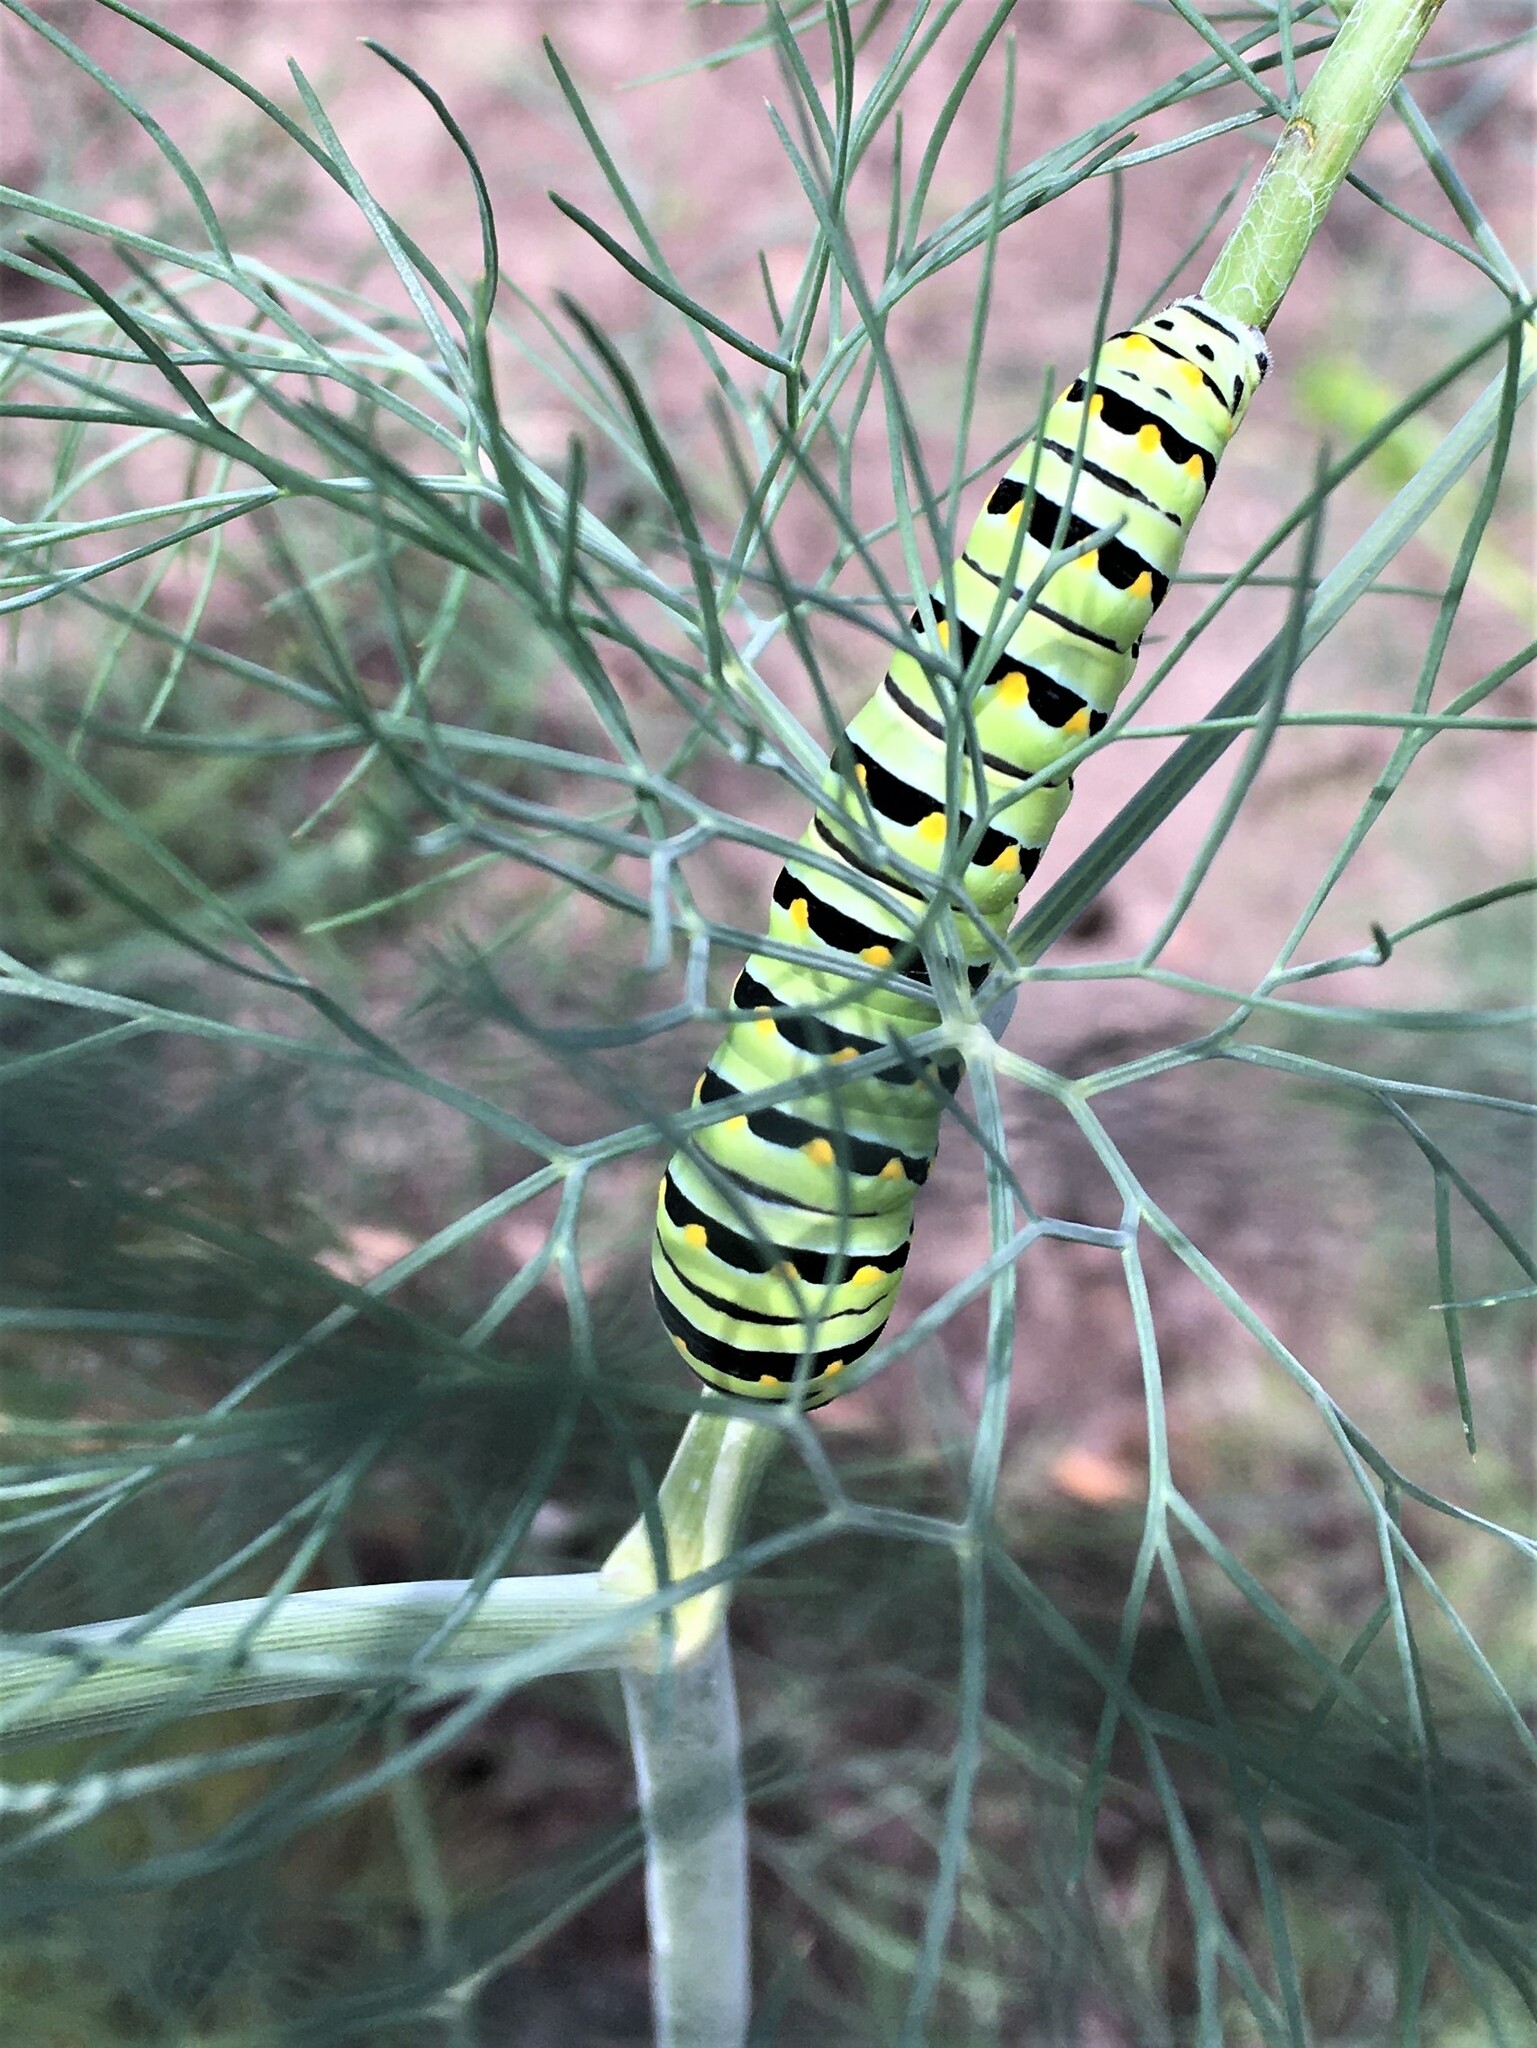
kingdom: Animalia
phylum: Arthropoda
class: Insecta
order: Lepidoptera
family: Papilionidae
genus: Papilio
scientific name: Papilio polyxenes
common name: Black swallowtail
